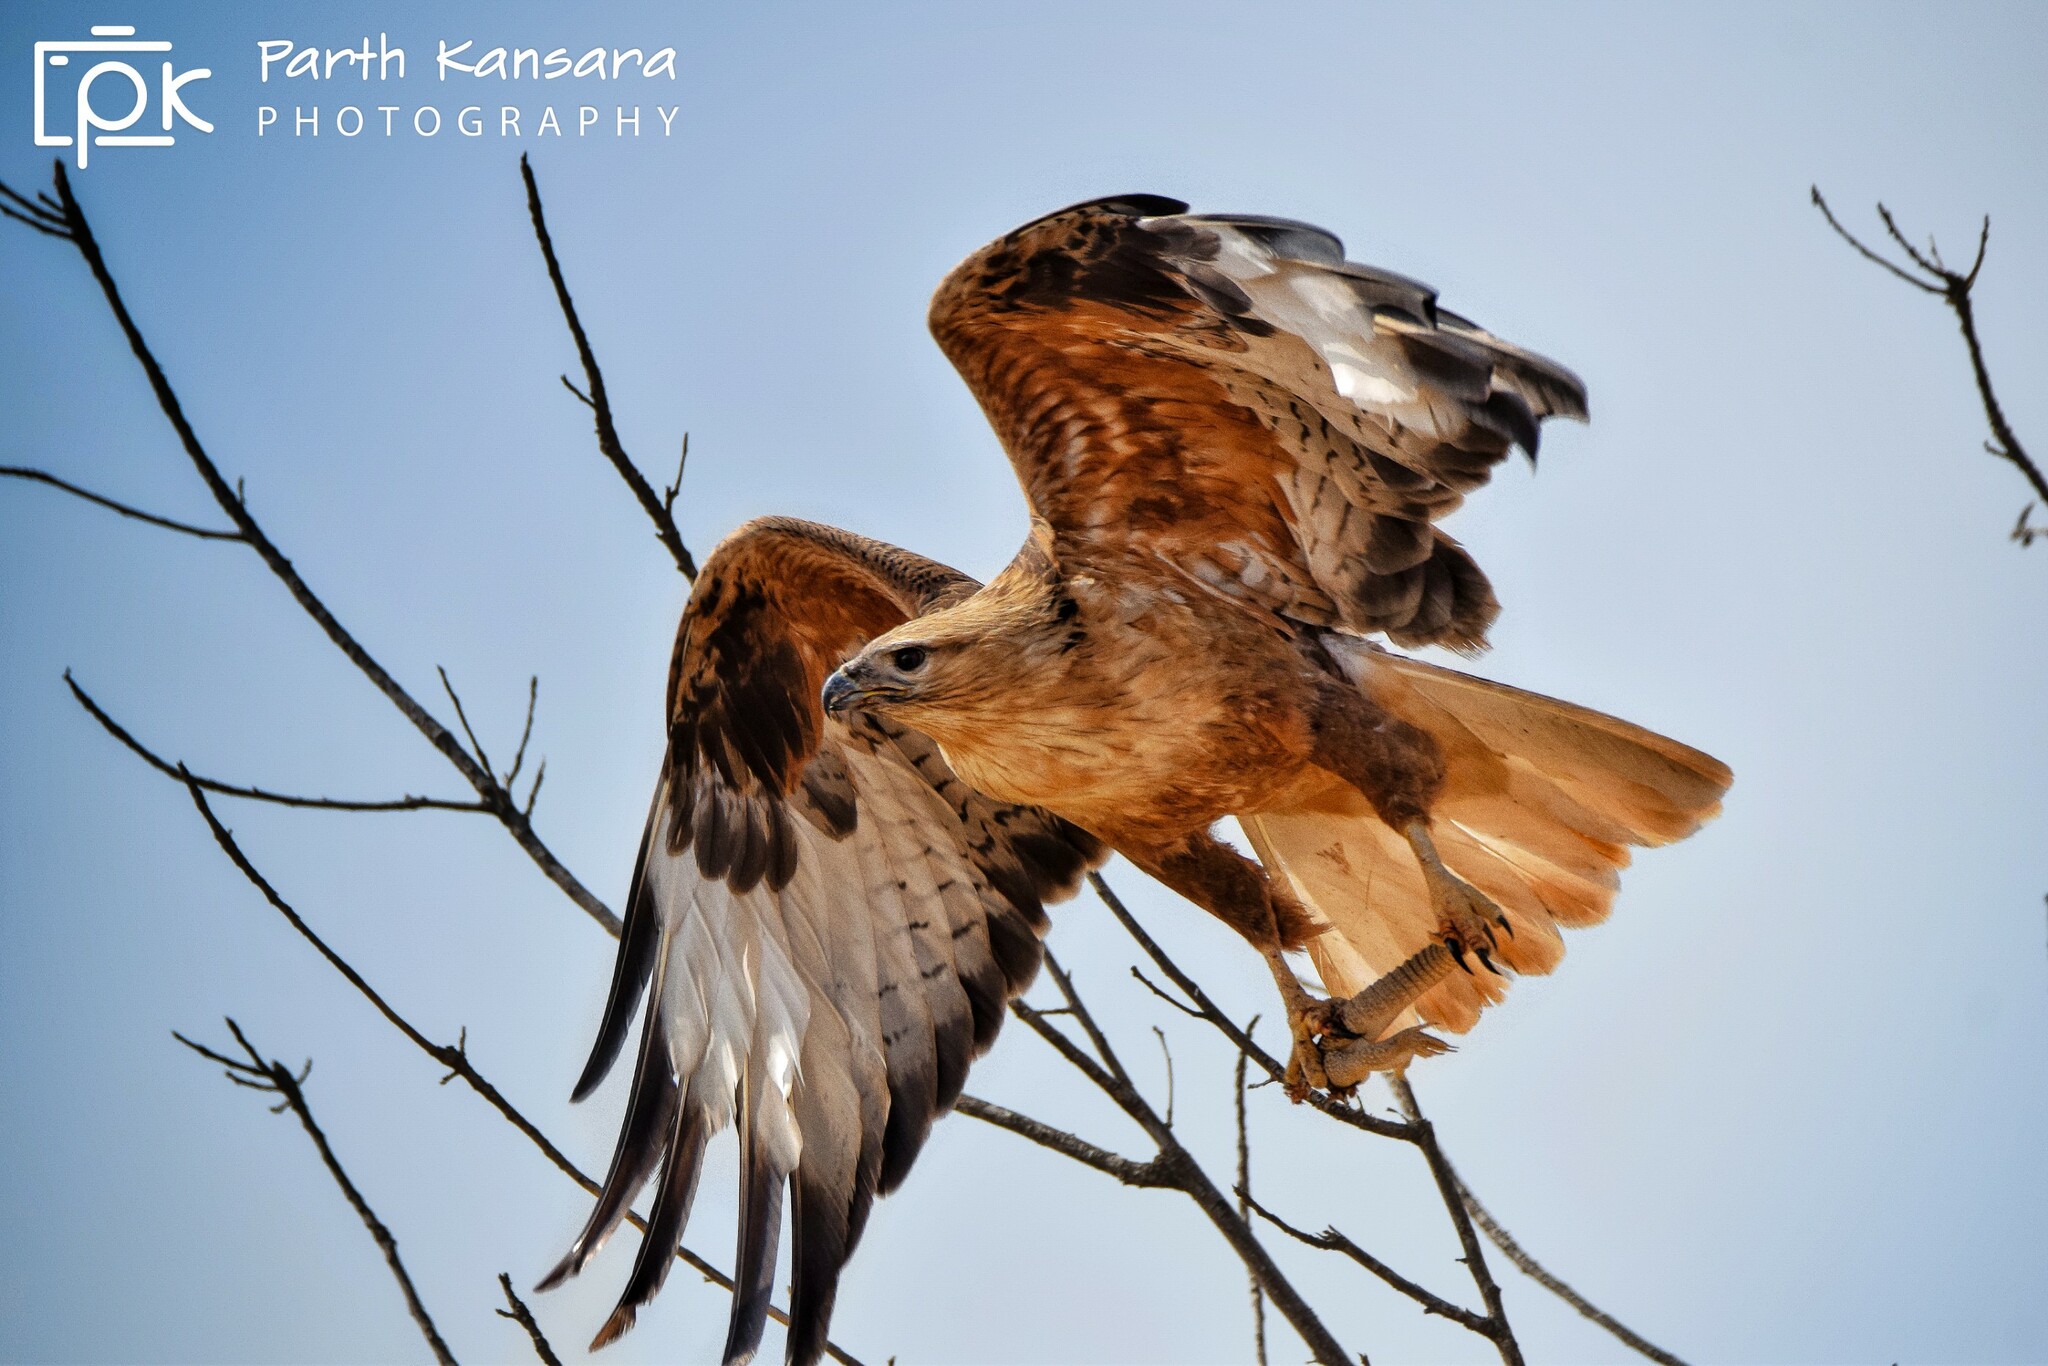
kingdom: Animalia
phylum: Chordata
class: Aves
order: Accipitriformes
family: Accipitridae
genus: Buteo
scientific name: Buteo rufinus
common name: Long-legged buzzard
